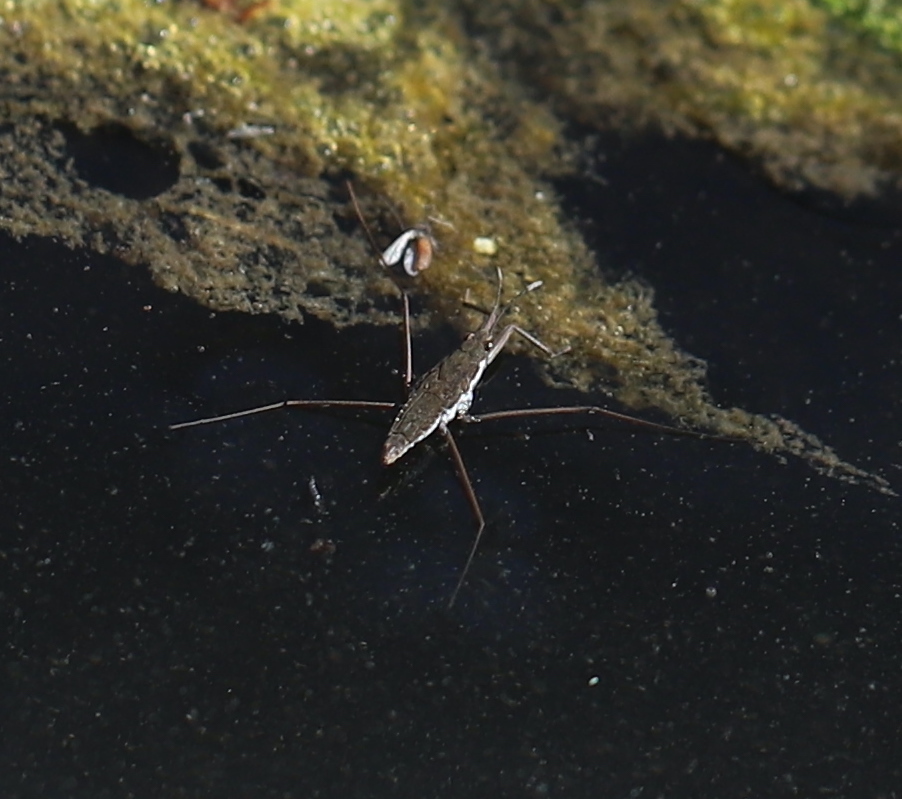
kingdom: Animalia
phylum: Arthropoda
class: Insecta
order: Hemiptera
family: Gerridae
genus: Aquarius
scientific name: Aquarius remigis
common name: Common water strider
